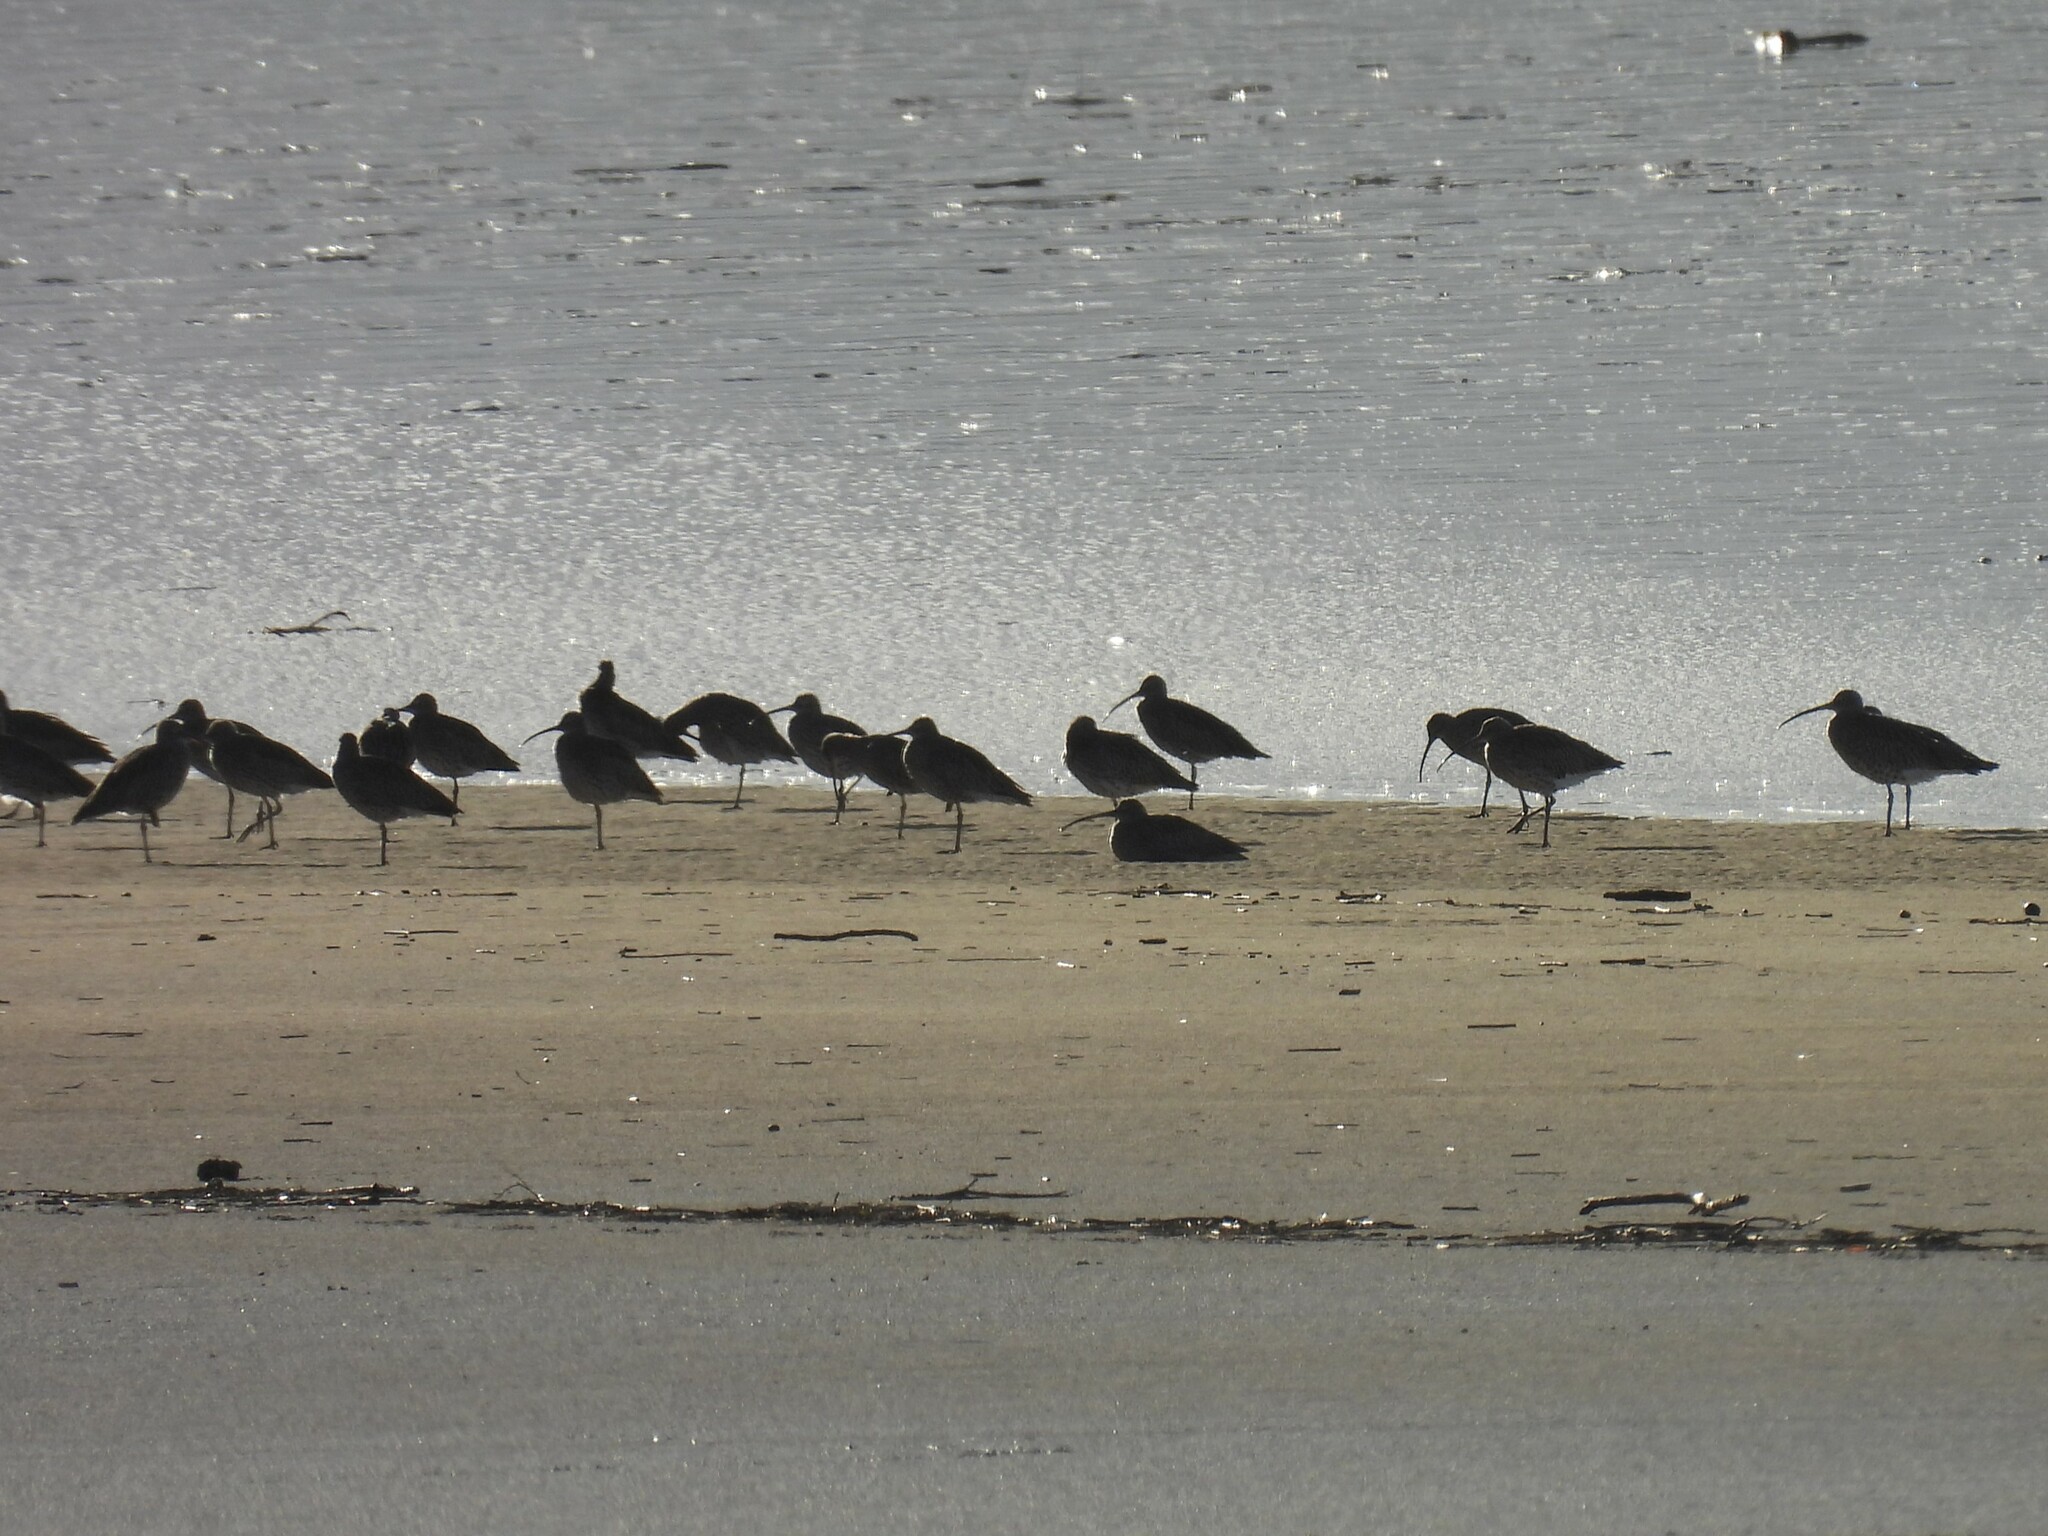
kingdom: Animalia
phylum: Chordata
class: Aves
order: Charadriiformes
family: Scolopacidae
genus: Numenius
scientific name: Numenius arquata
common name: Eurasian curlew
